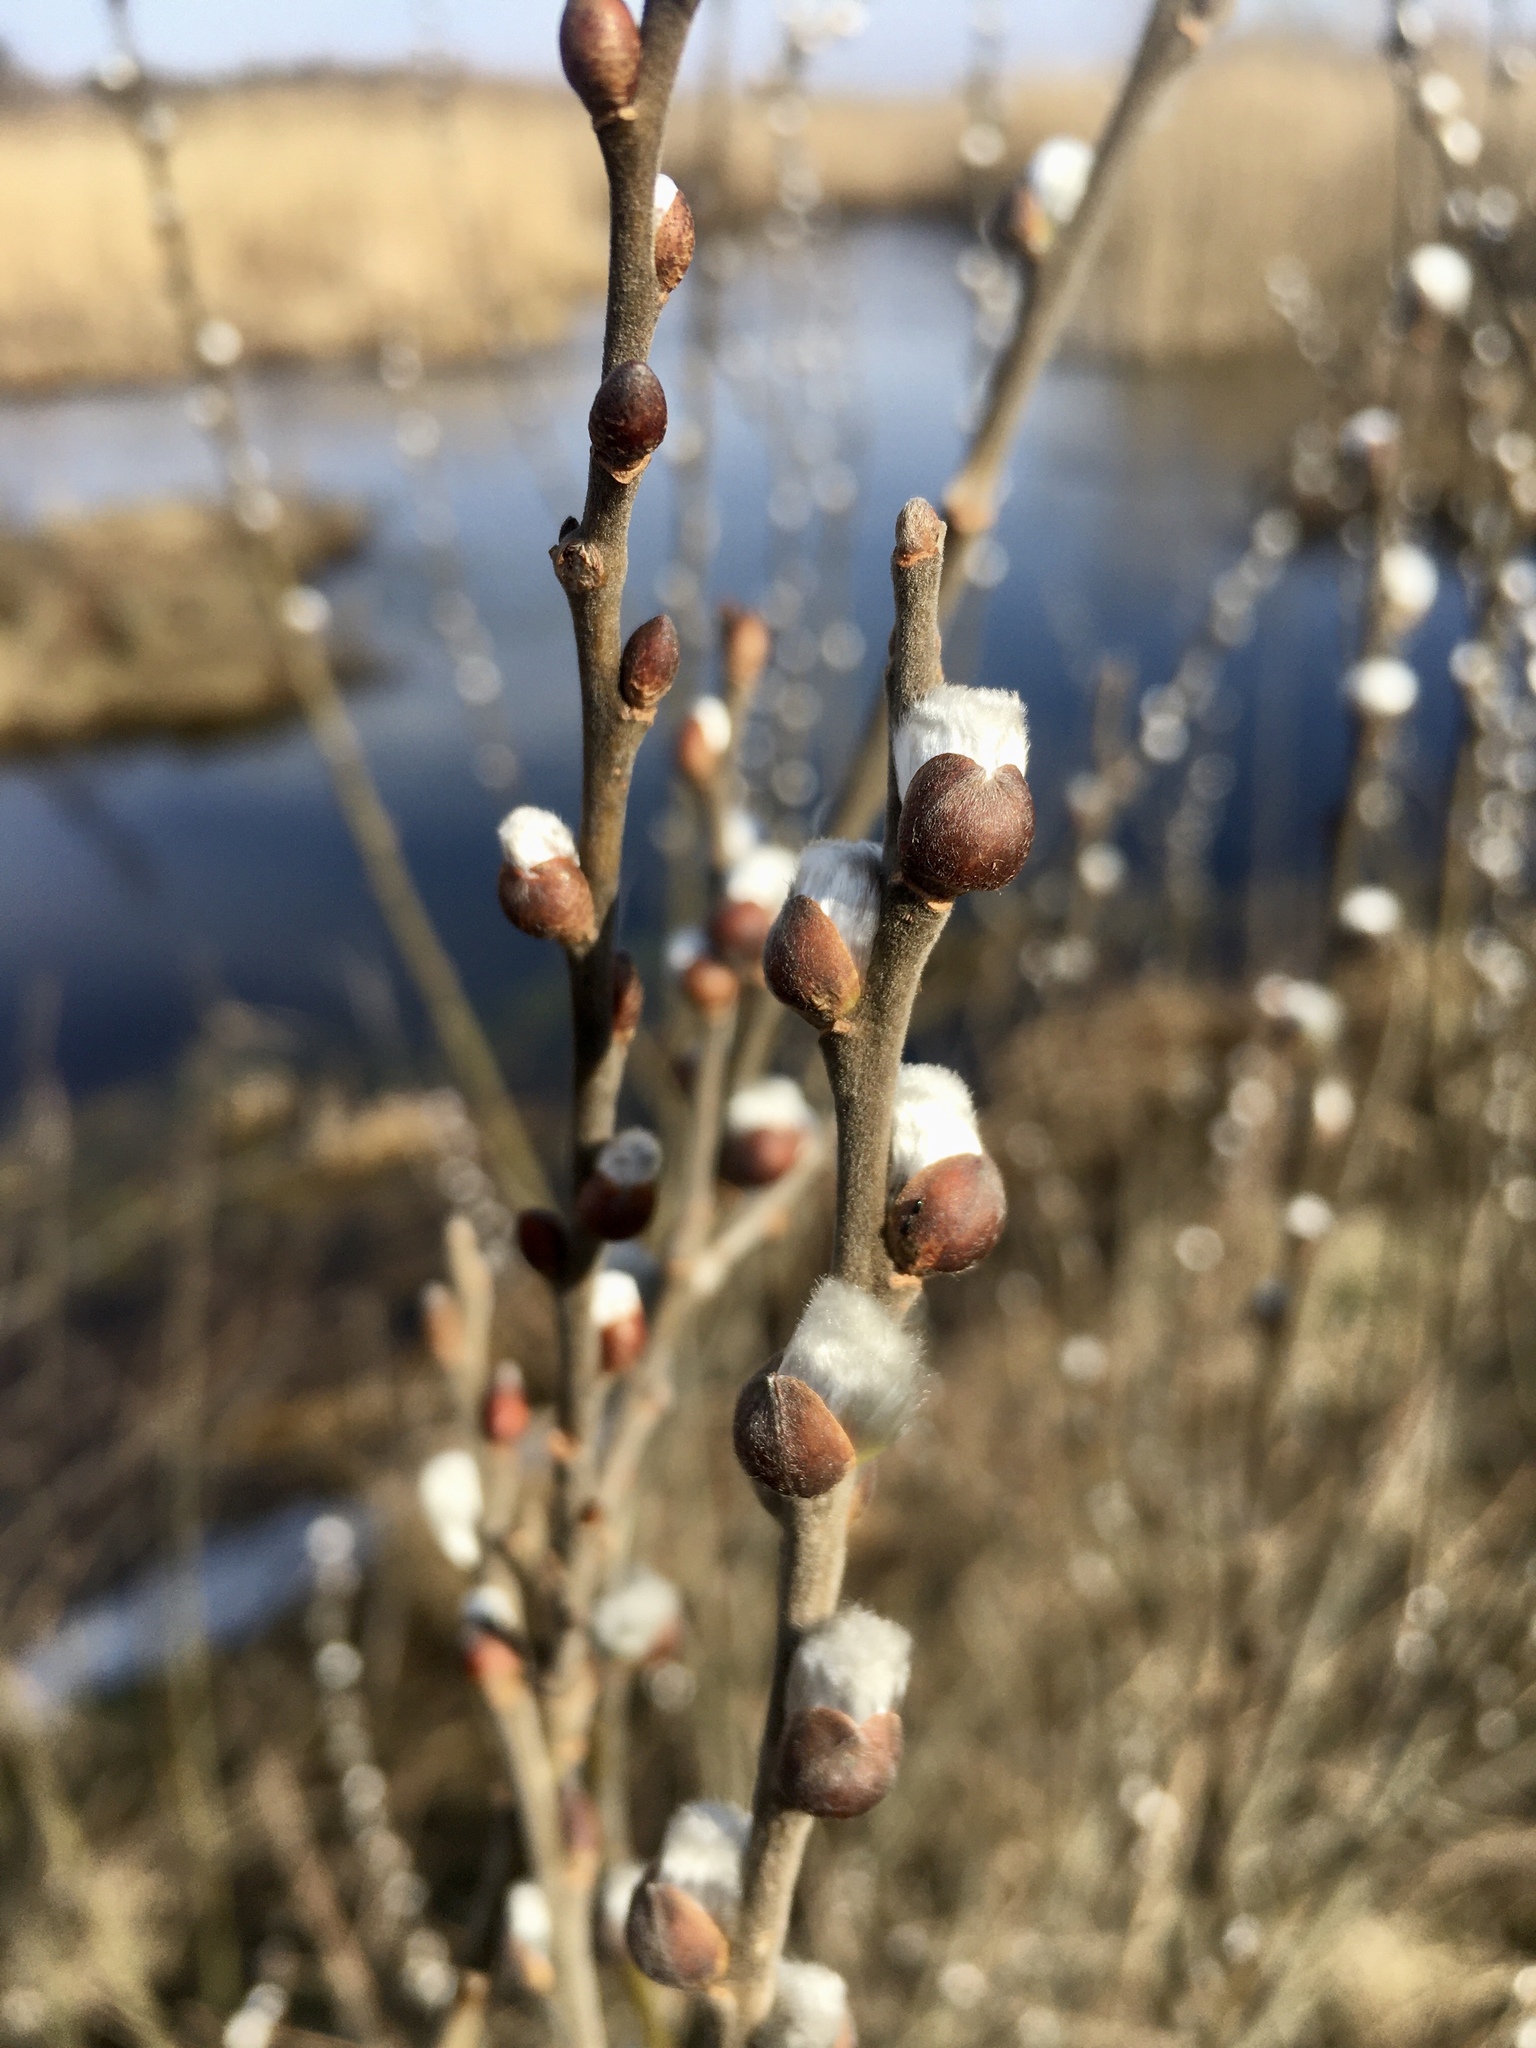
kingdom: Plantae
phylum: Tracheophyta
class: Magnoliopsida
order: Malpighiales
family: Salicaceae
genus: Salix
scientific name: Salix cinerea
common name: Common sallow
